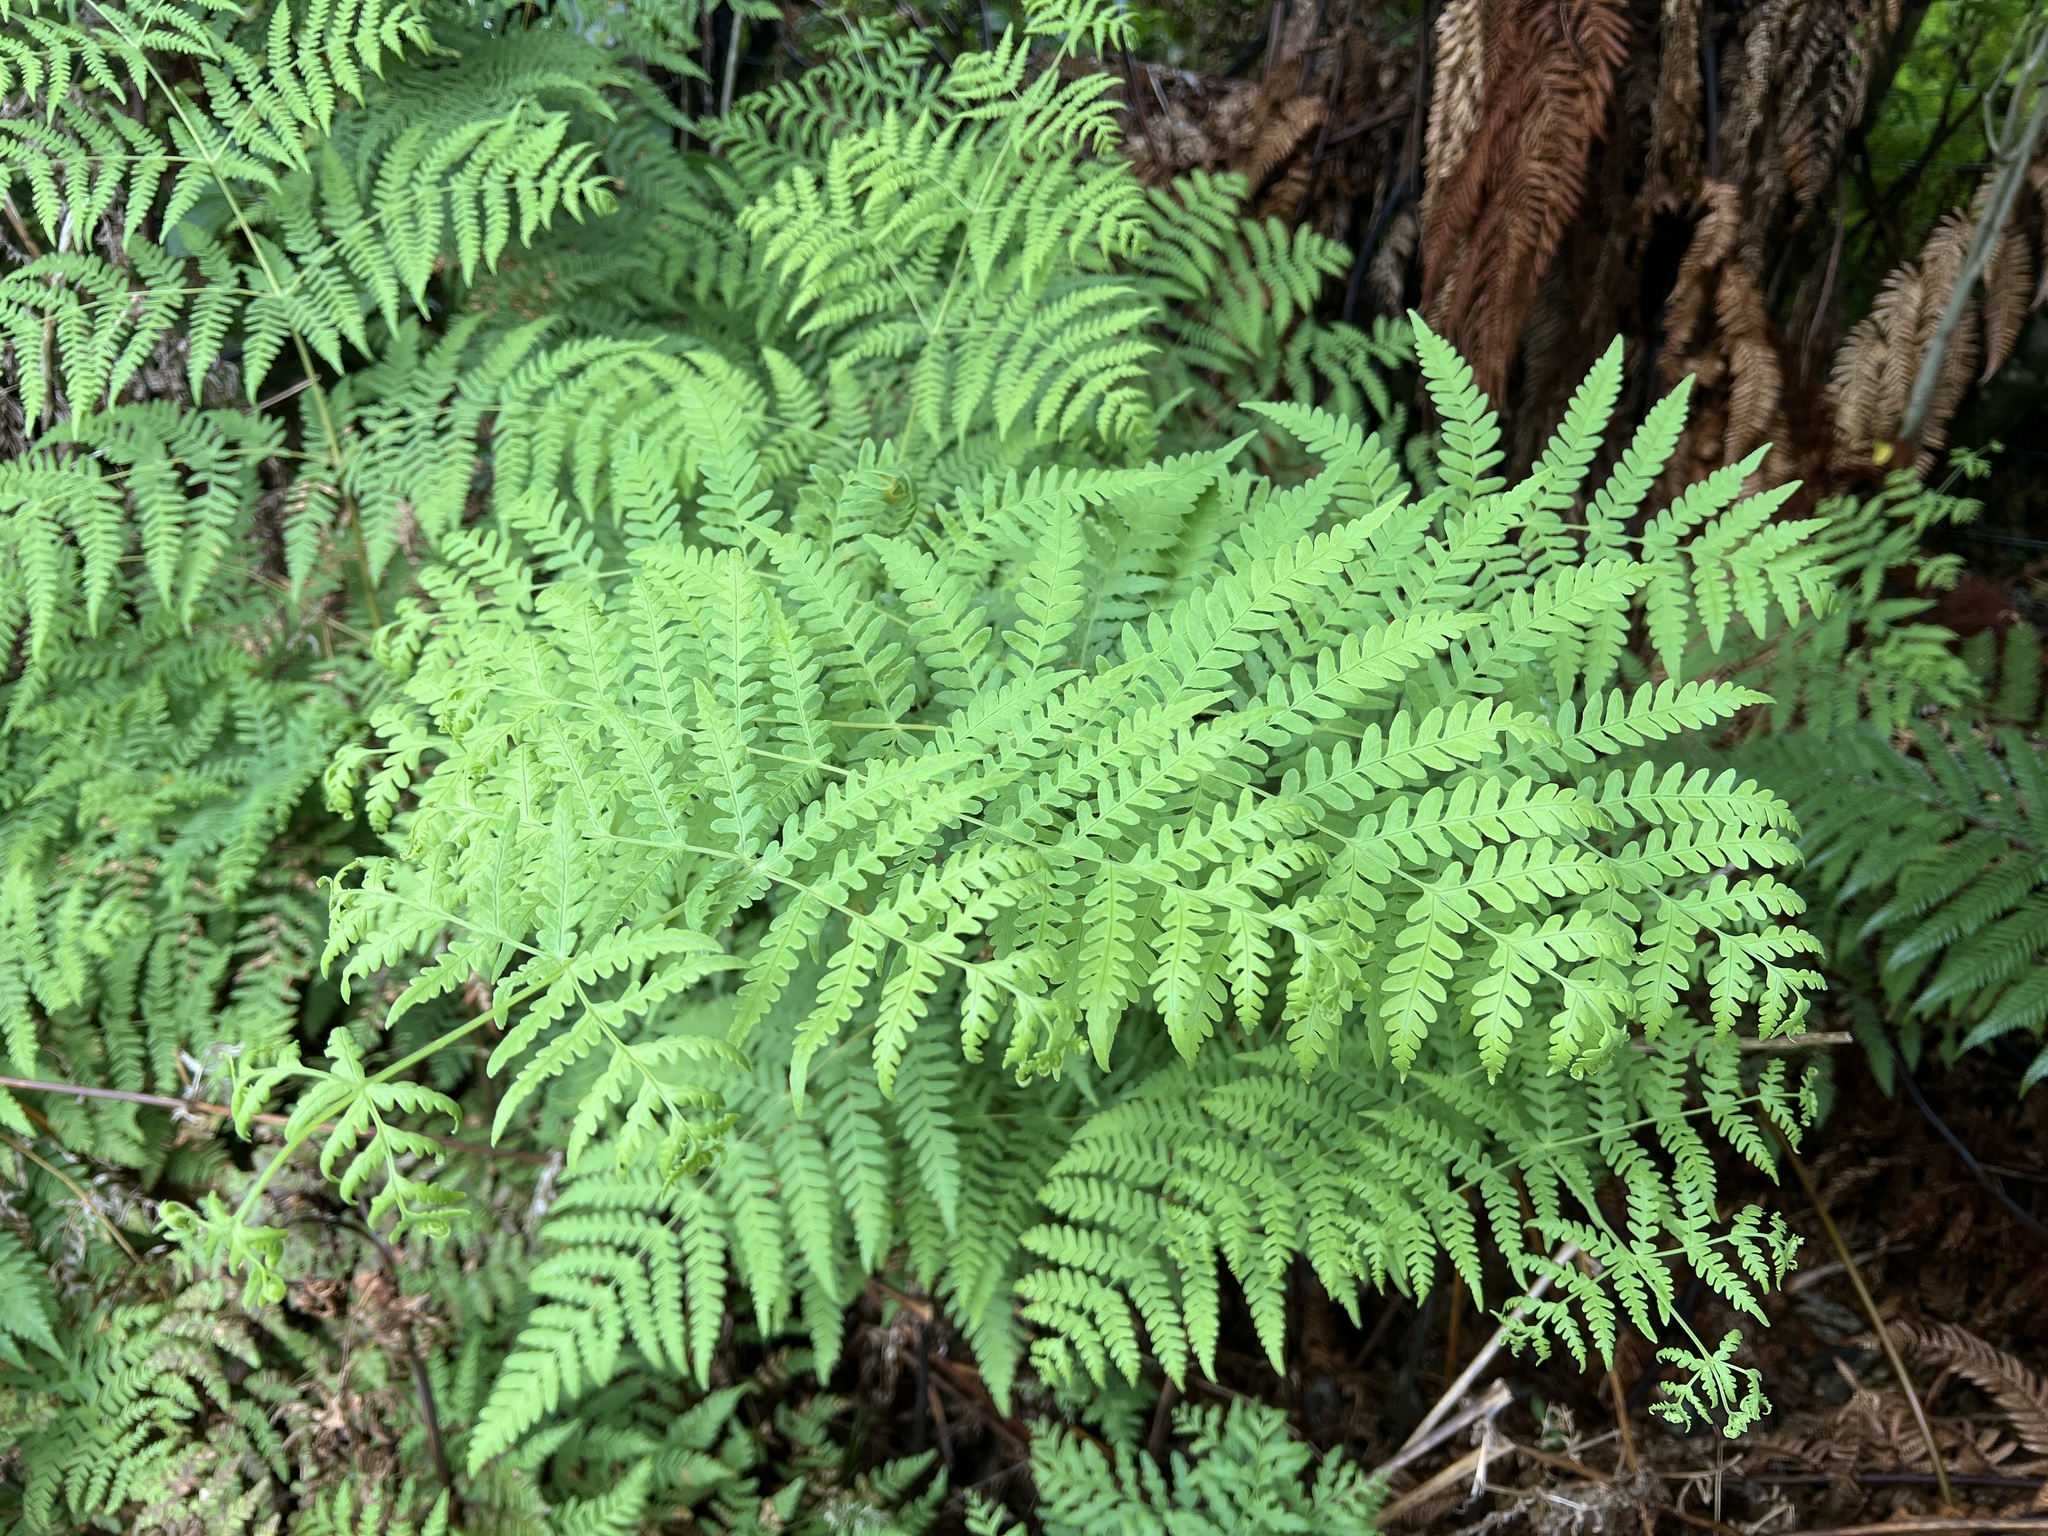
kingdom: Plantae
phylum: Tracheophyta
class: Polypodiopsida
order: Polypodiales
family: Dennstaedtiaceae
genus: Histiopteris
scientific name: Histiopteris incisa
